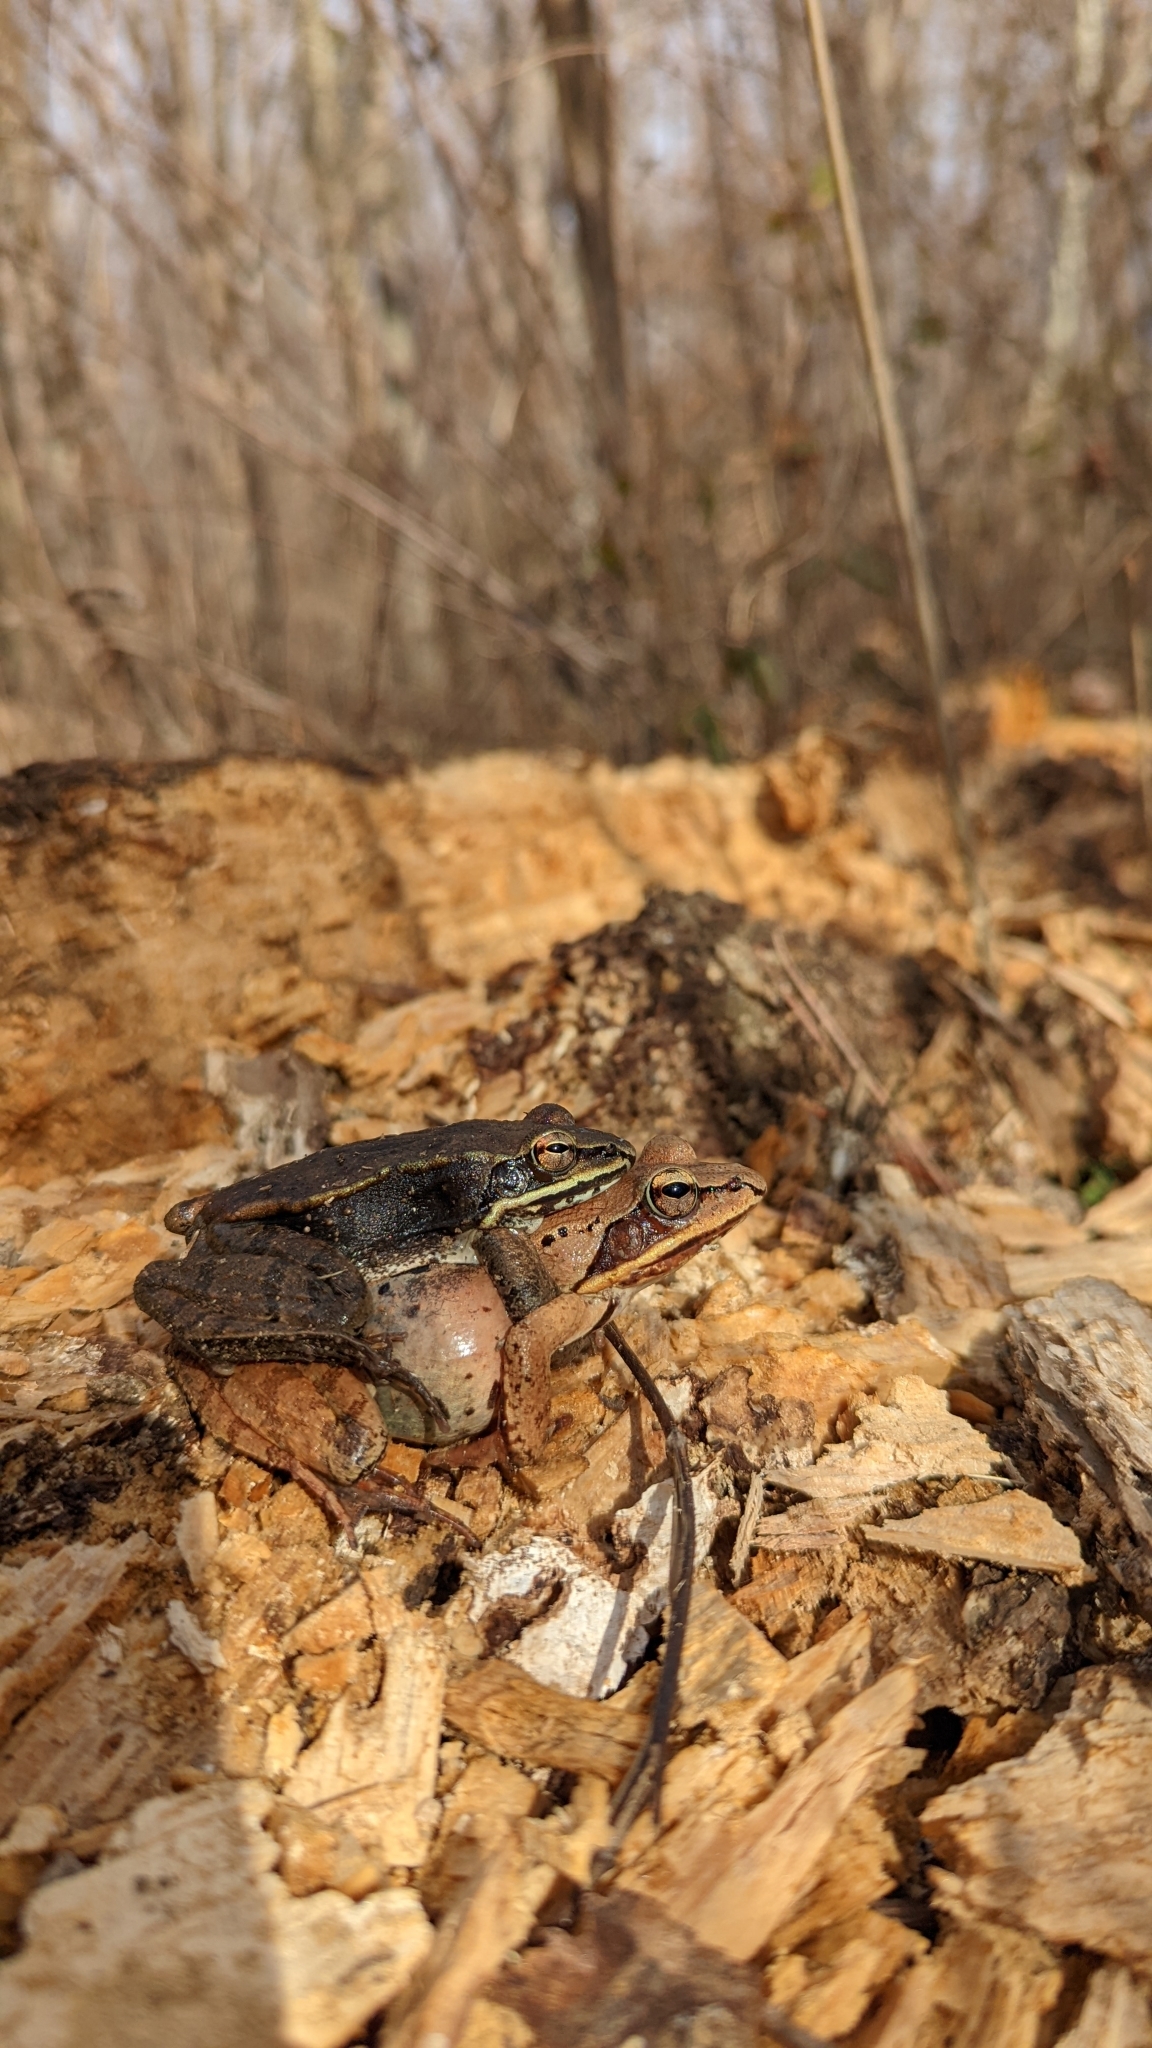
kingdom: Animalia
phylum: Chordata
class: Amphibia
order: Anura
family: Ranidae
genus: Lithobates
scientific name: Lithobates sylvaticus
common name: Wood frog
